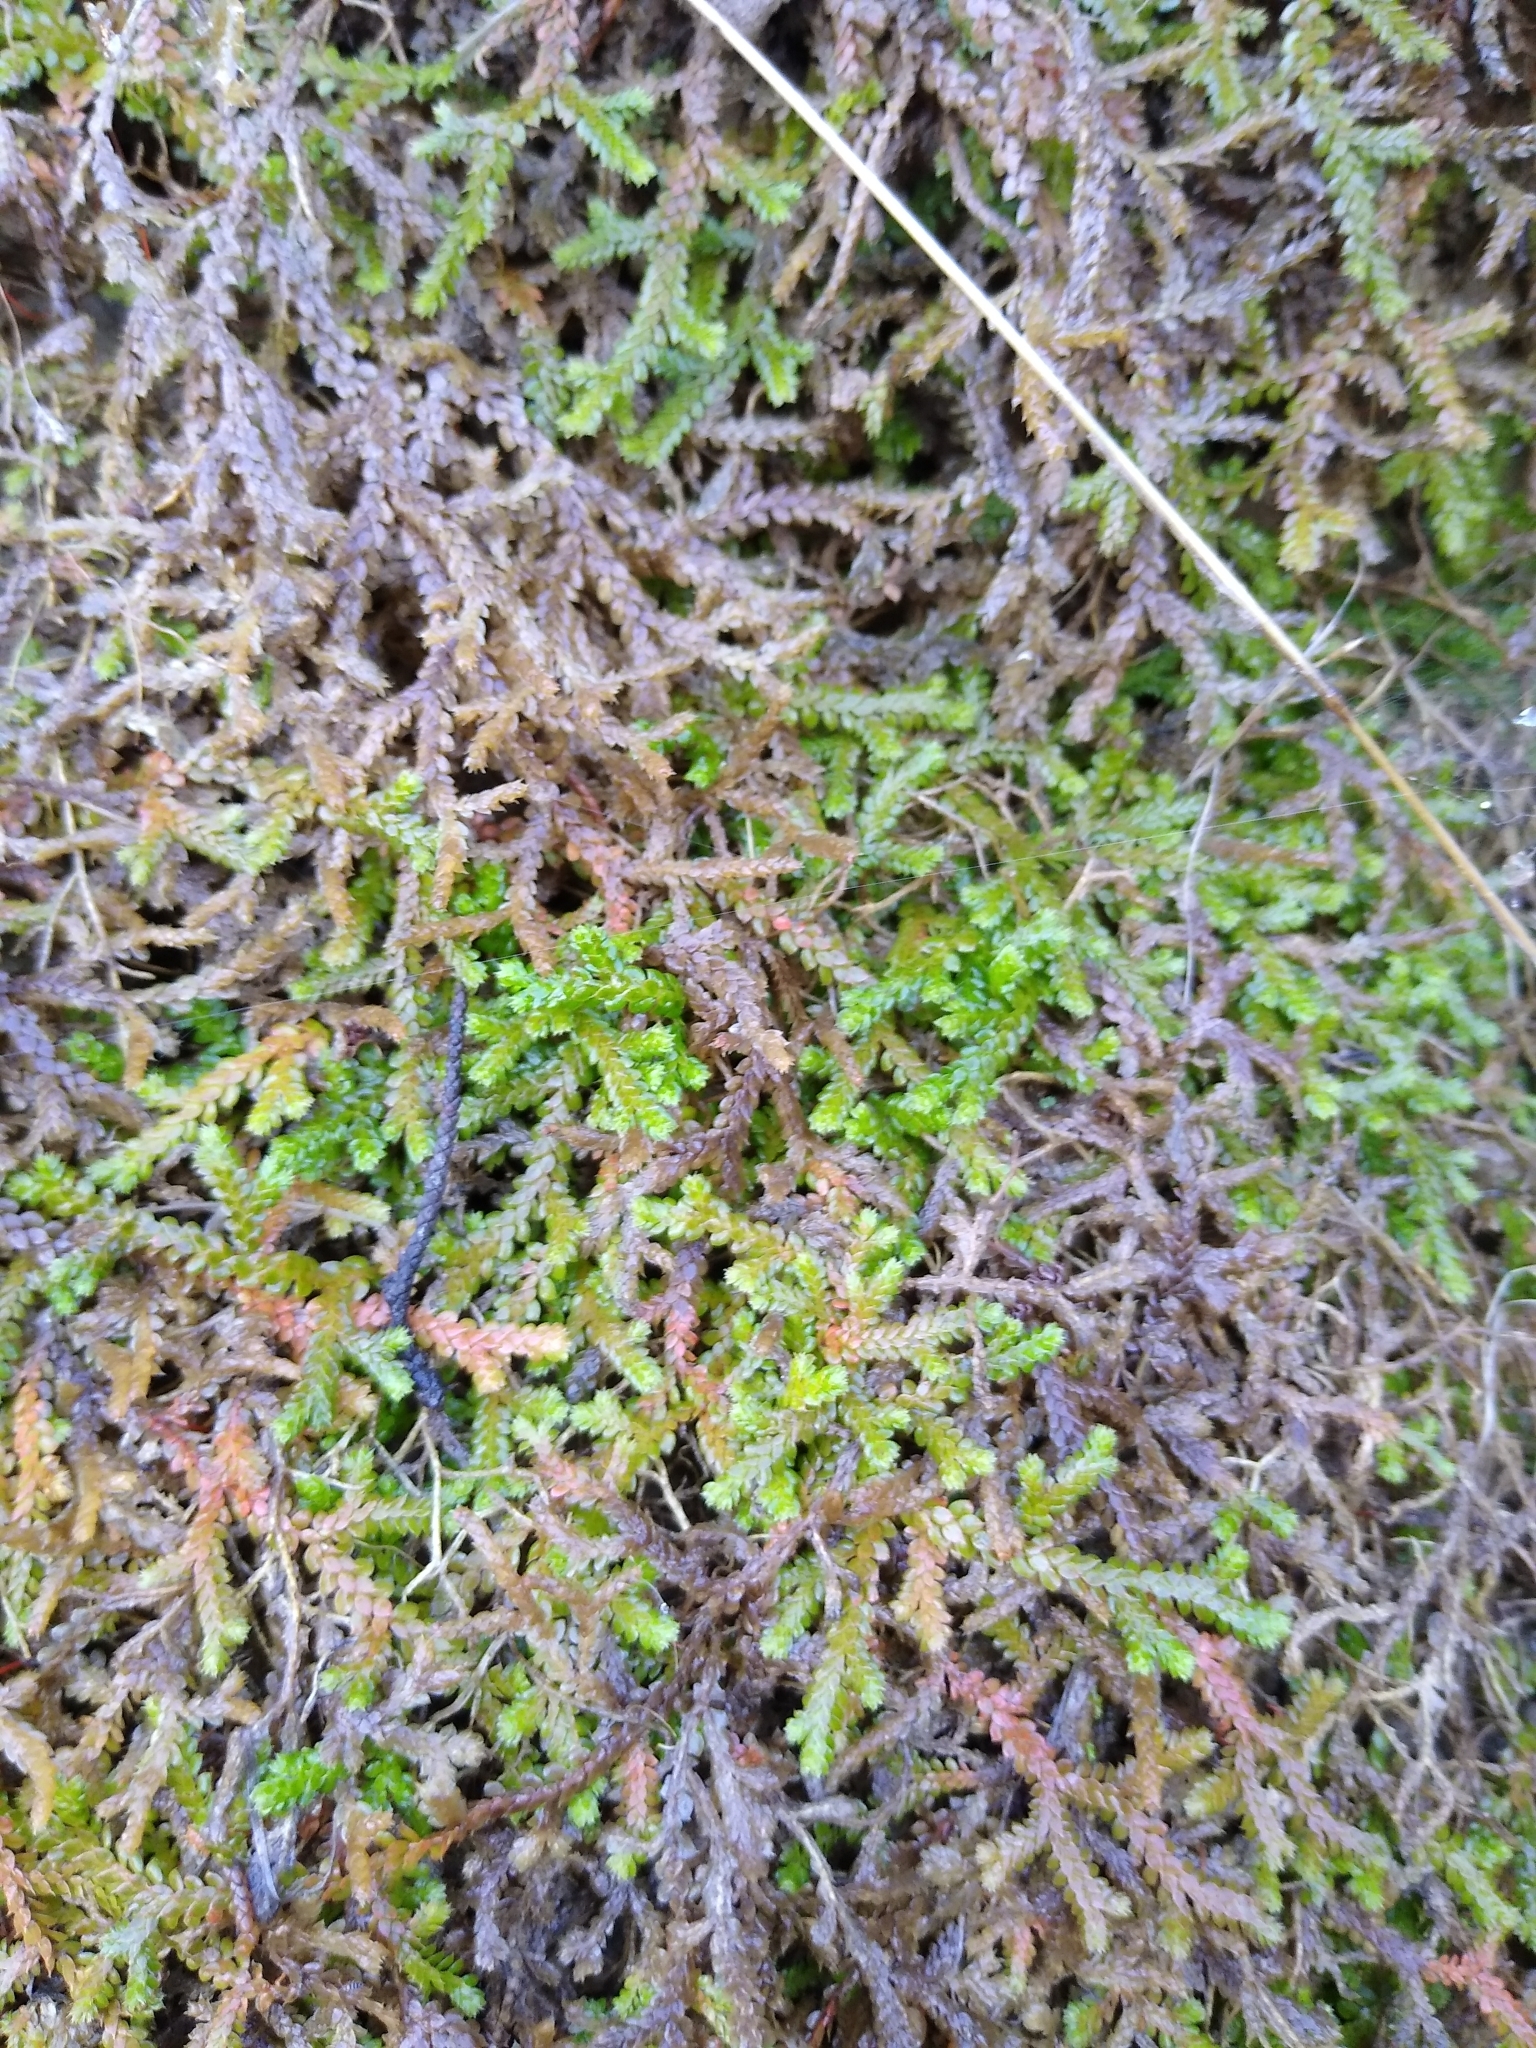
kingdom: Plantae
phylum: Tracheophyta
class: Lycopodiopsida
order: Selaginellales
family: Selaginellaceae
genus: Selaginella
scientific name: Selaginella denticulata
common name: Toothed-leaved clubmoss
